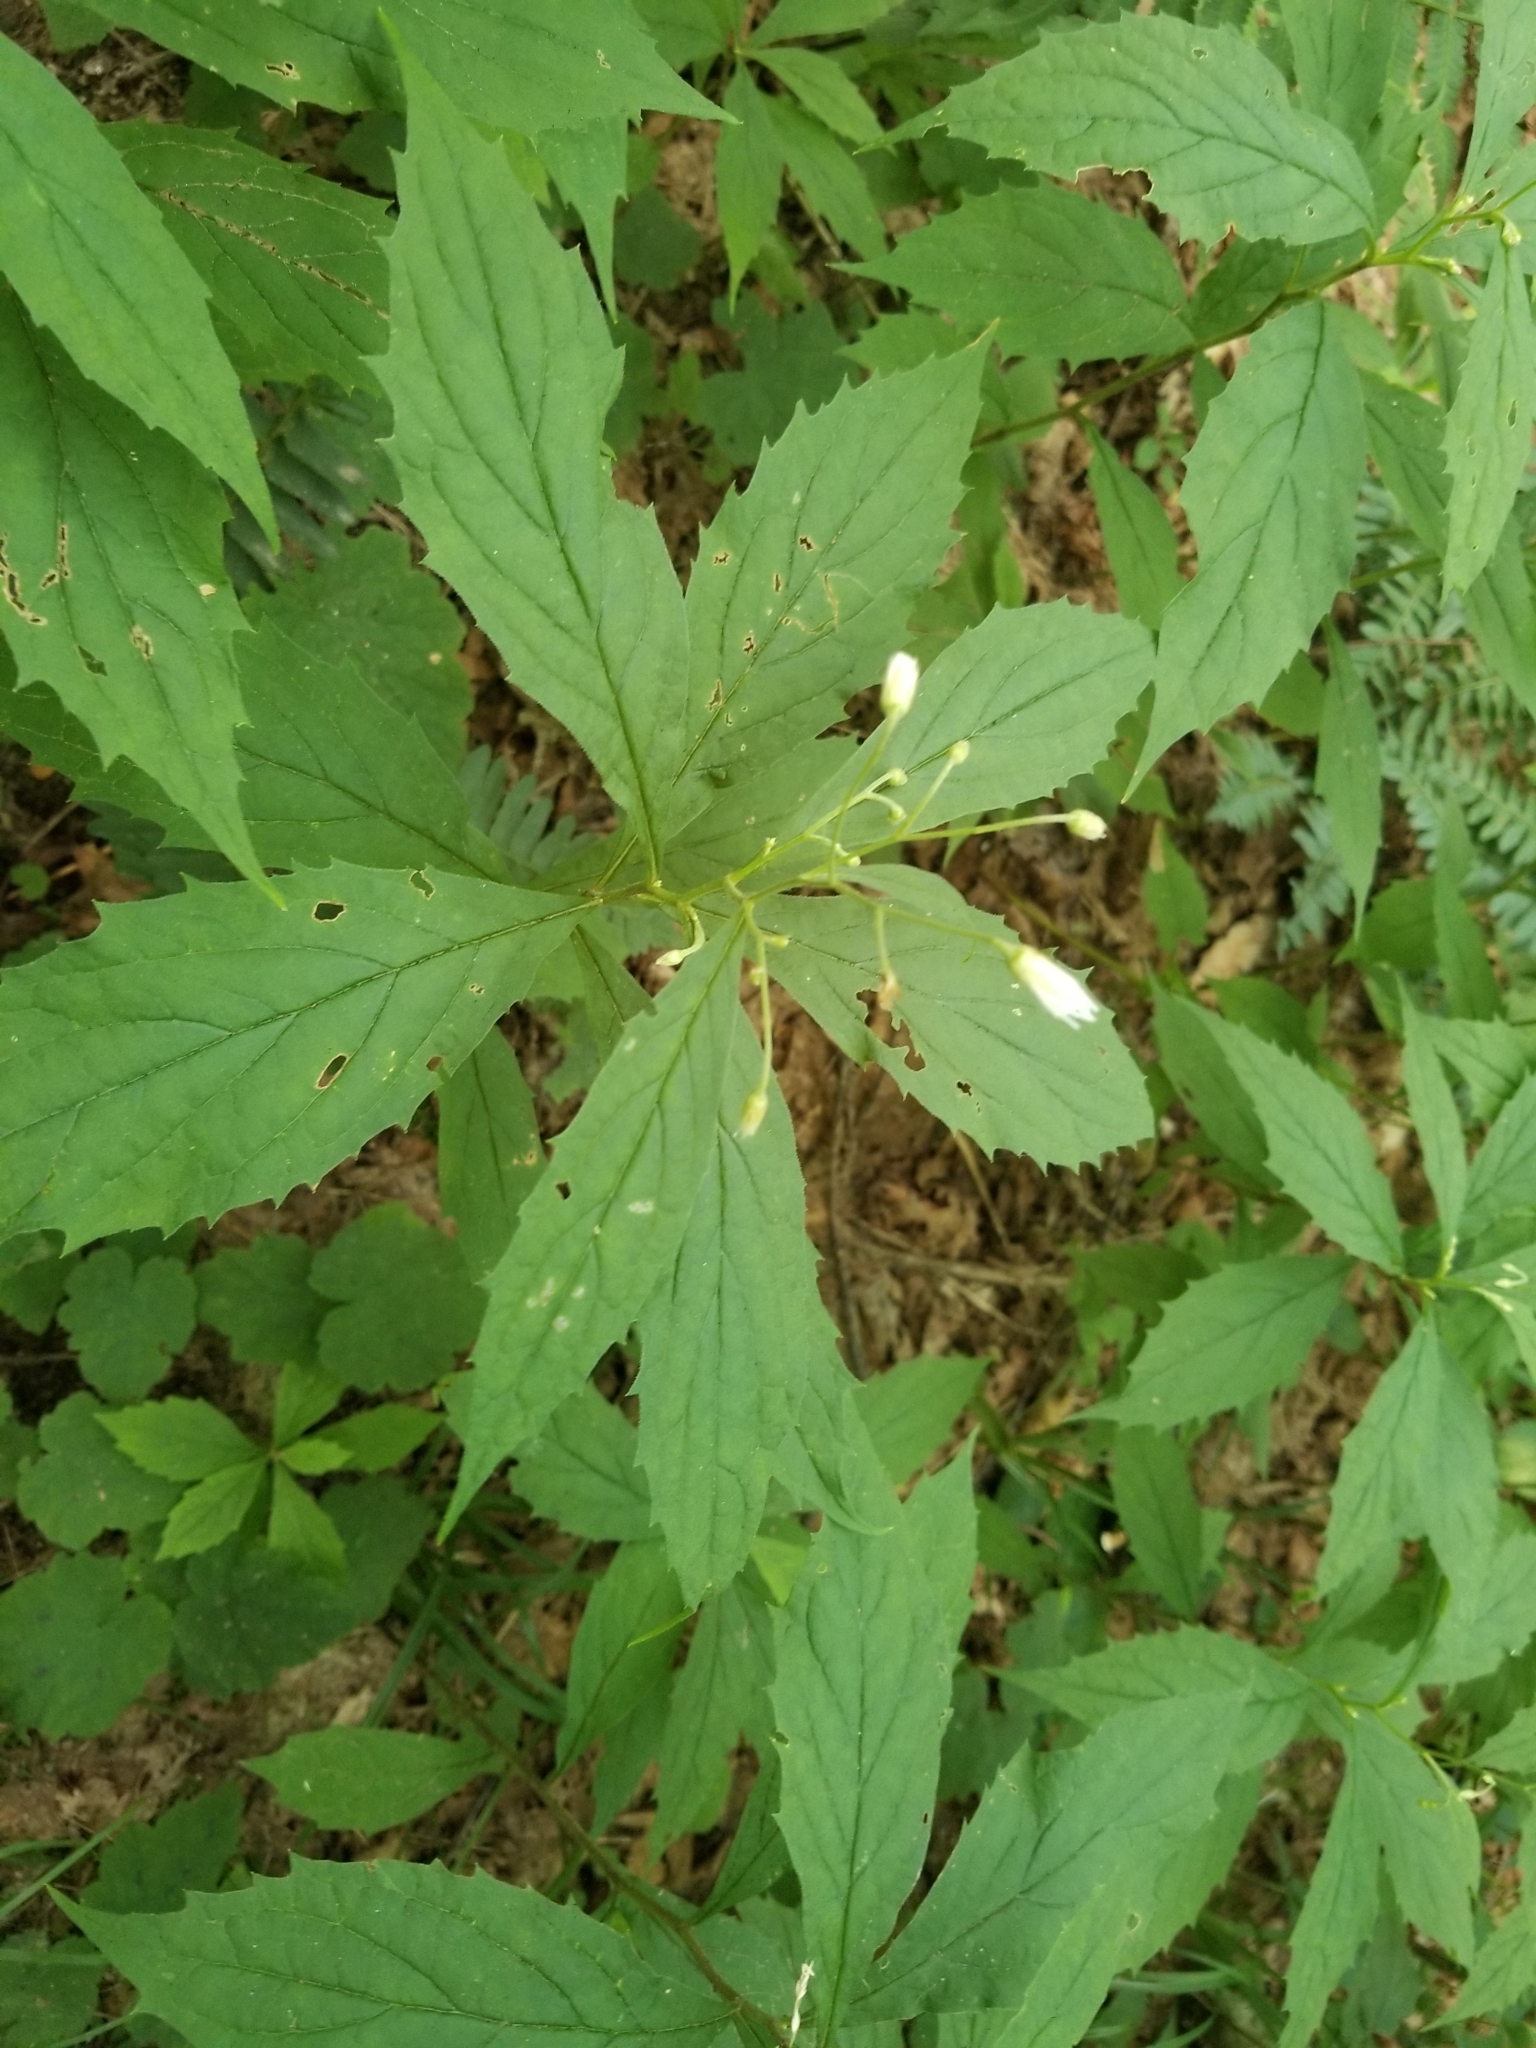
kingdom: Plantae
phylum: Tracheophyta
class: Magnoliopsida
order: Asterales
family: Asteraceae
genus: Oclemena
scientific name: Oclemena acuminata
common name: Mountain aster
